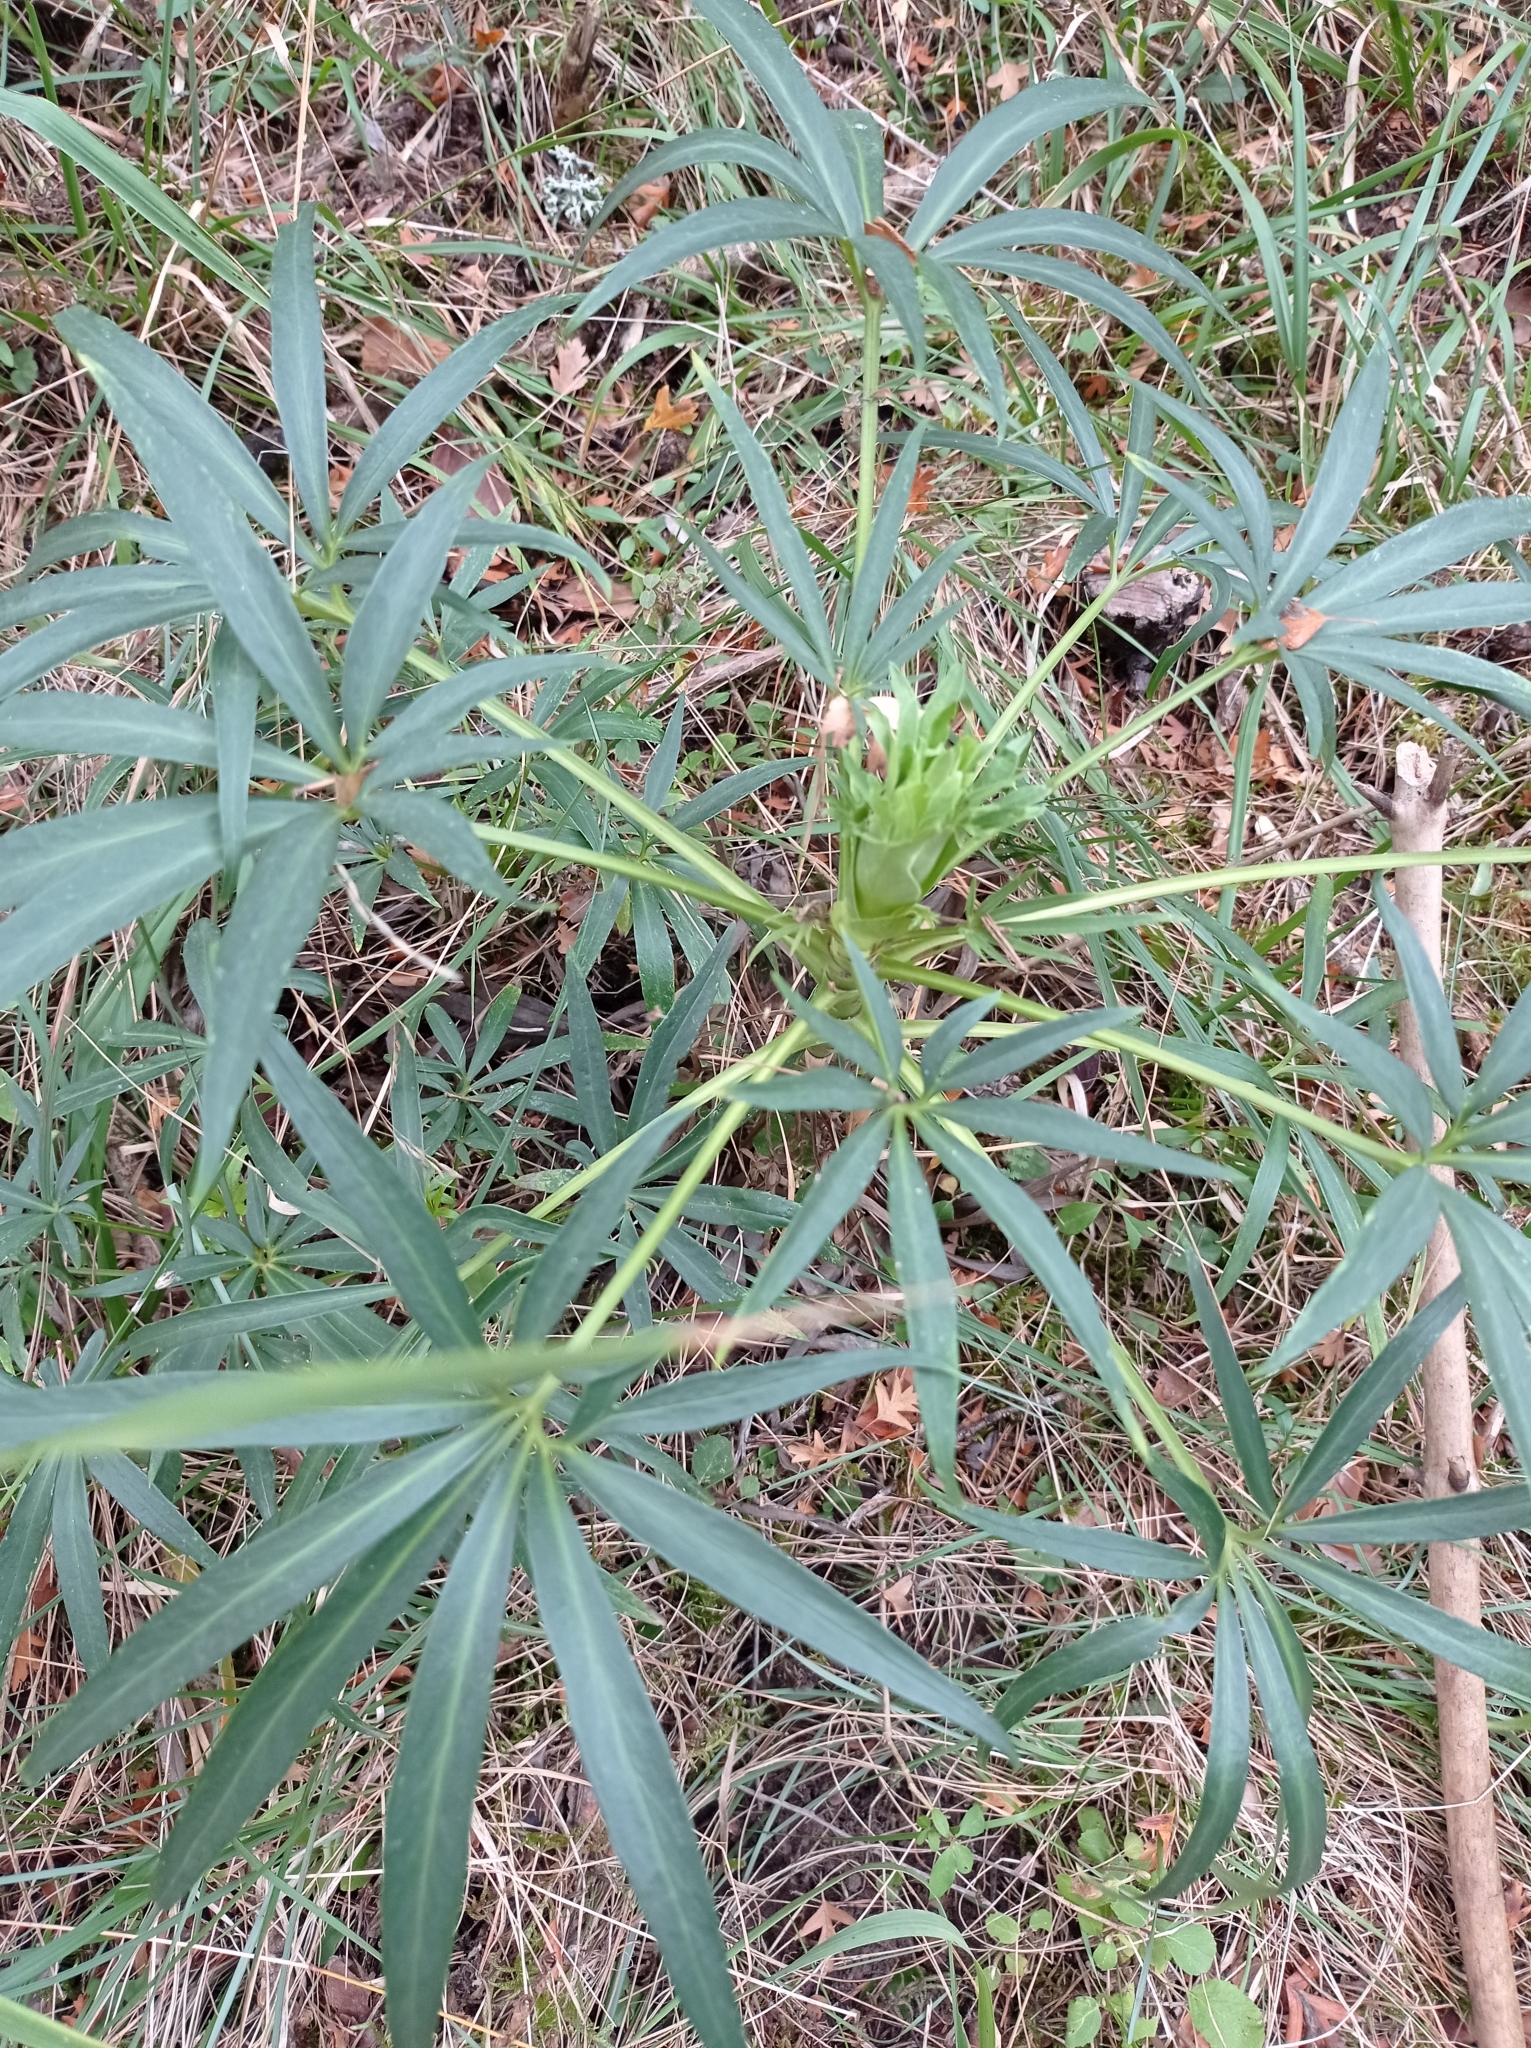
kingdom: Plantae
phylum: Tracheophyta
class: Magnoliopsida
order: Ranunculales
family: Ranunculaceae
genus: Helleborus
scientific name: Helleborus foetidus
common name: Stinking hellebore
